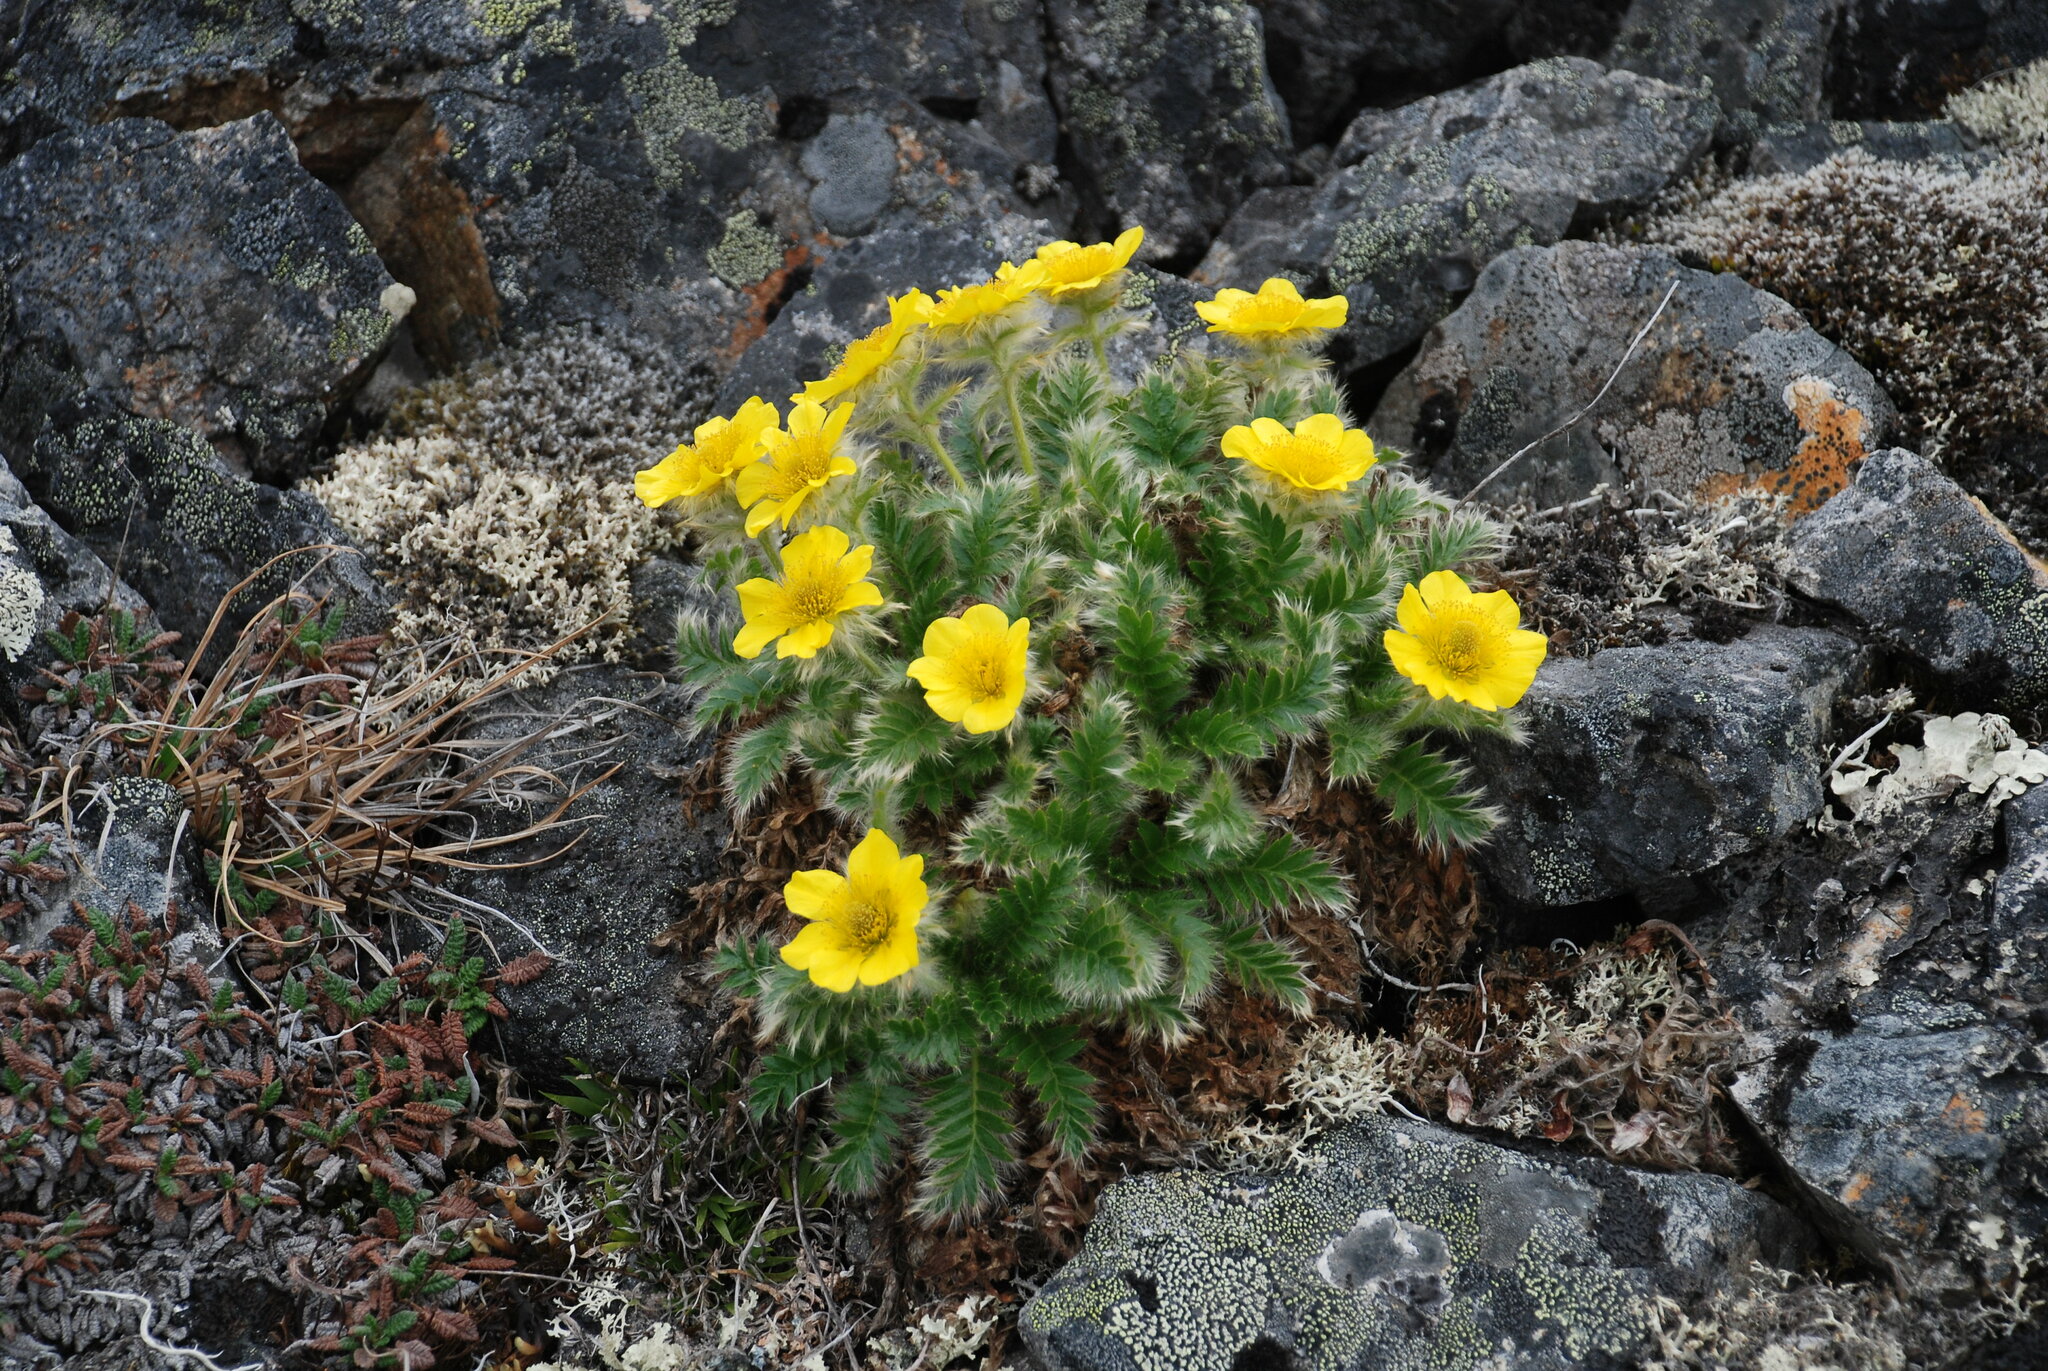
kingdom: Plantae
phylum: Tracheophyta
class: Magnoliopsida
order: Rosales
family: Rosaceae
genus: Geum
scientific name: Geum glaciale
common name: Glacier avens
